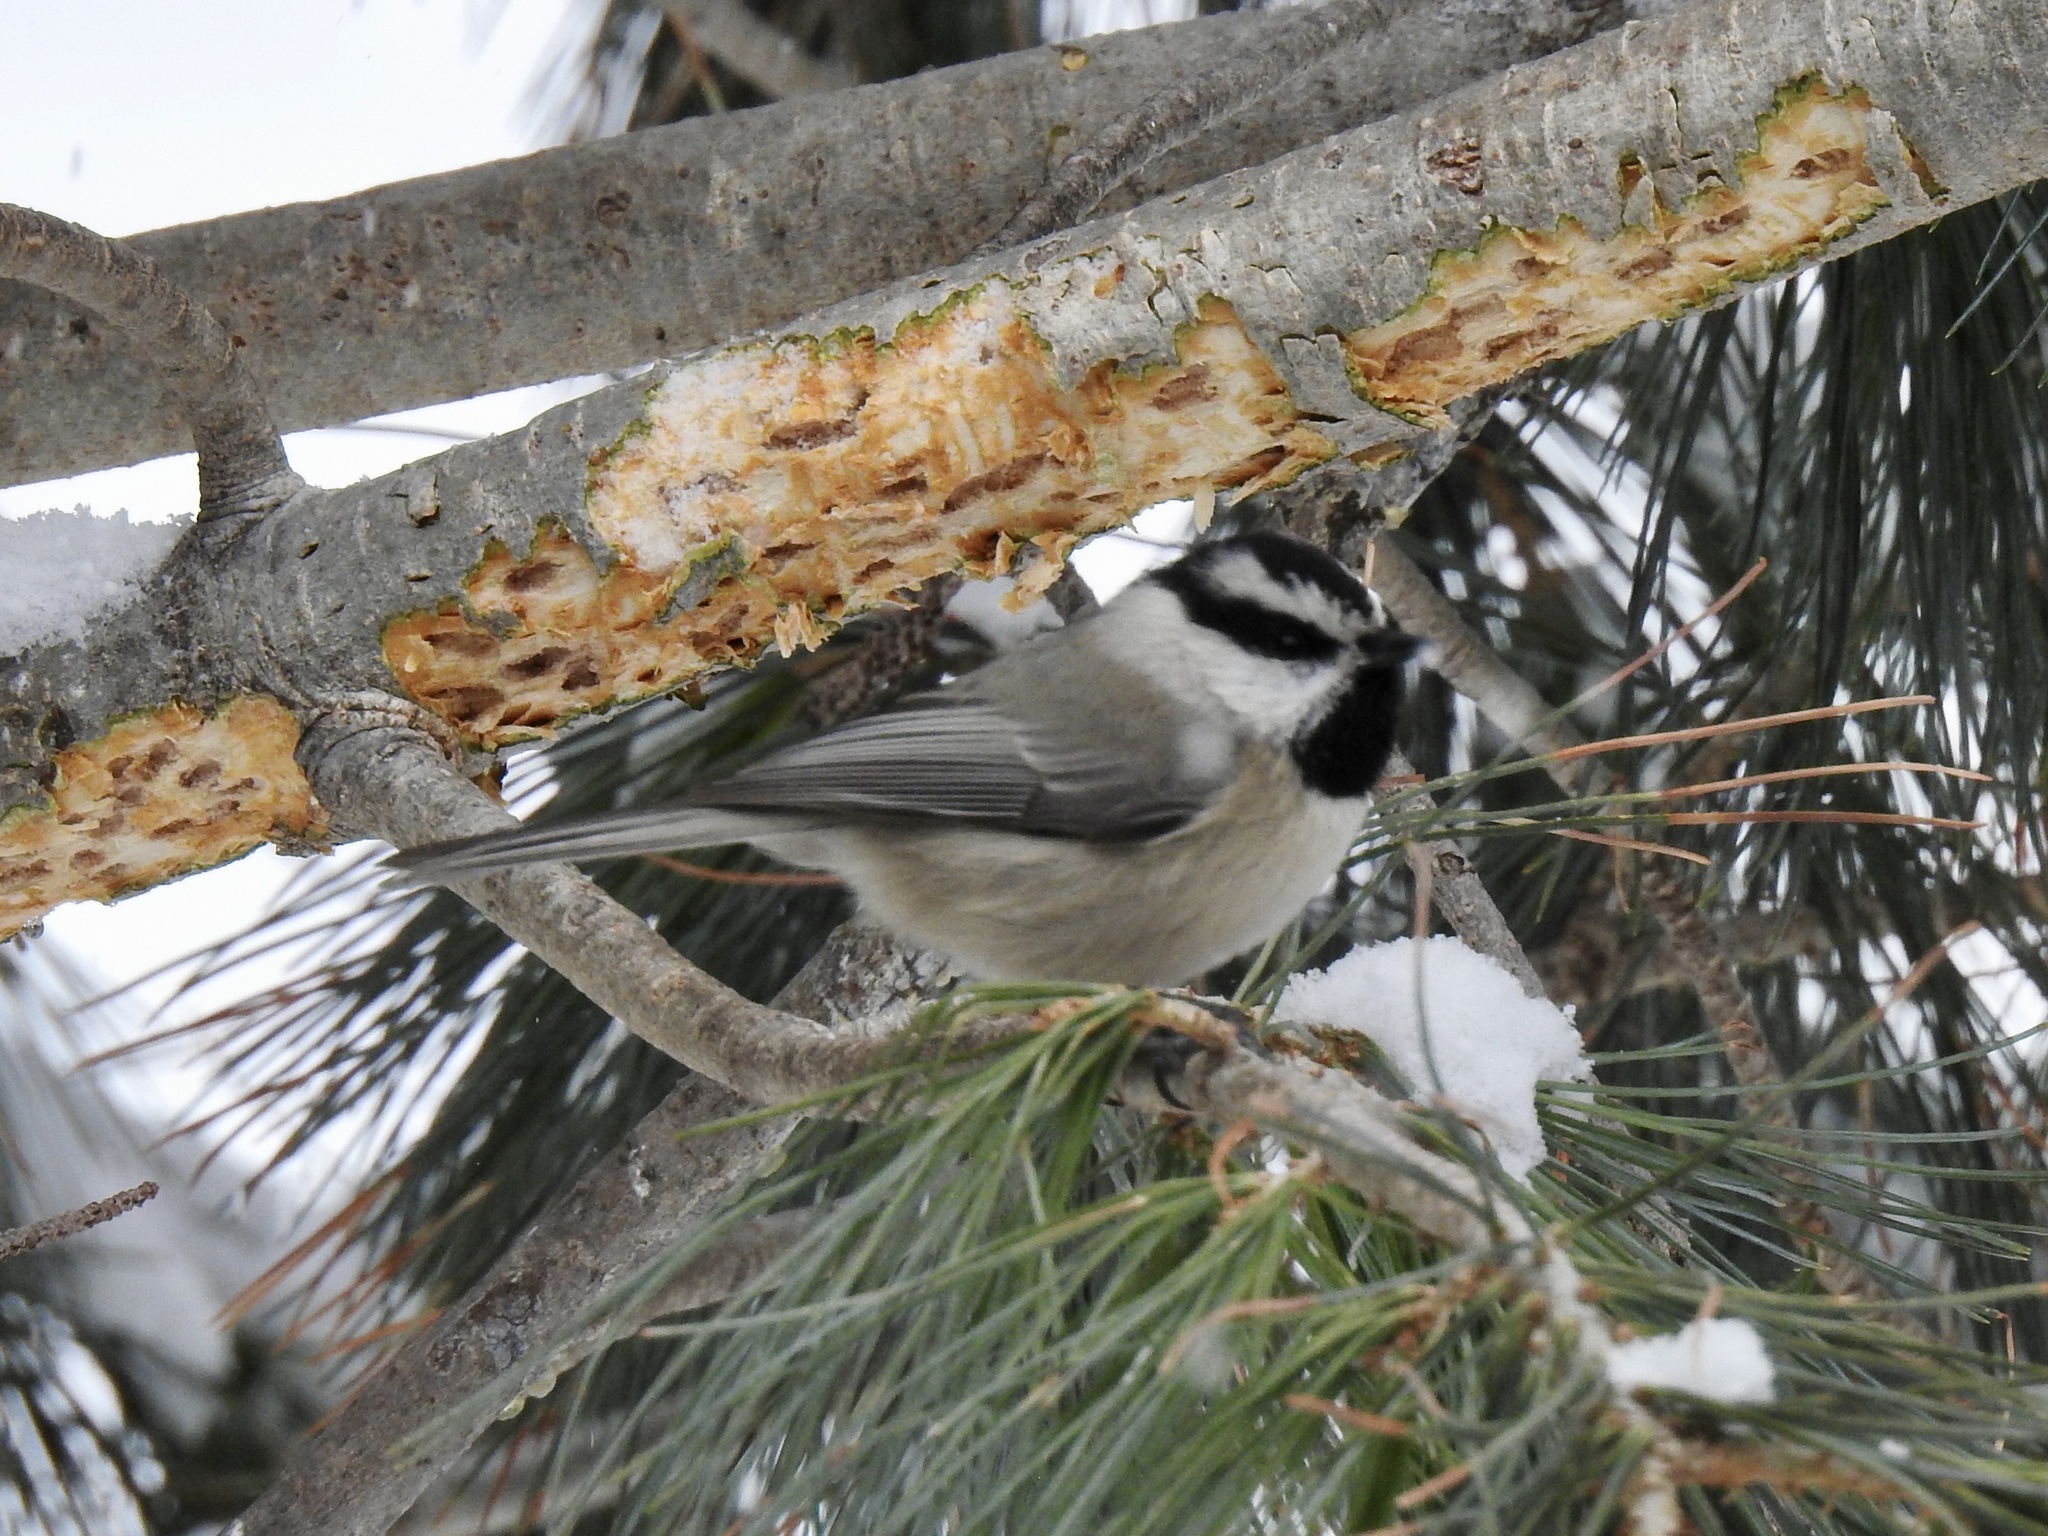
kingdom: Animalia
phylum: Chordata
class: Aves
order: Passeriformes
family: Paridae
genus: Poecile
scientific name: Poecile gambeli
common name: Mountain chickadee
